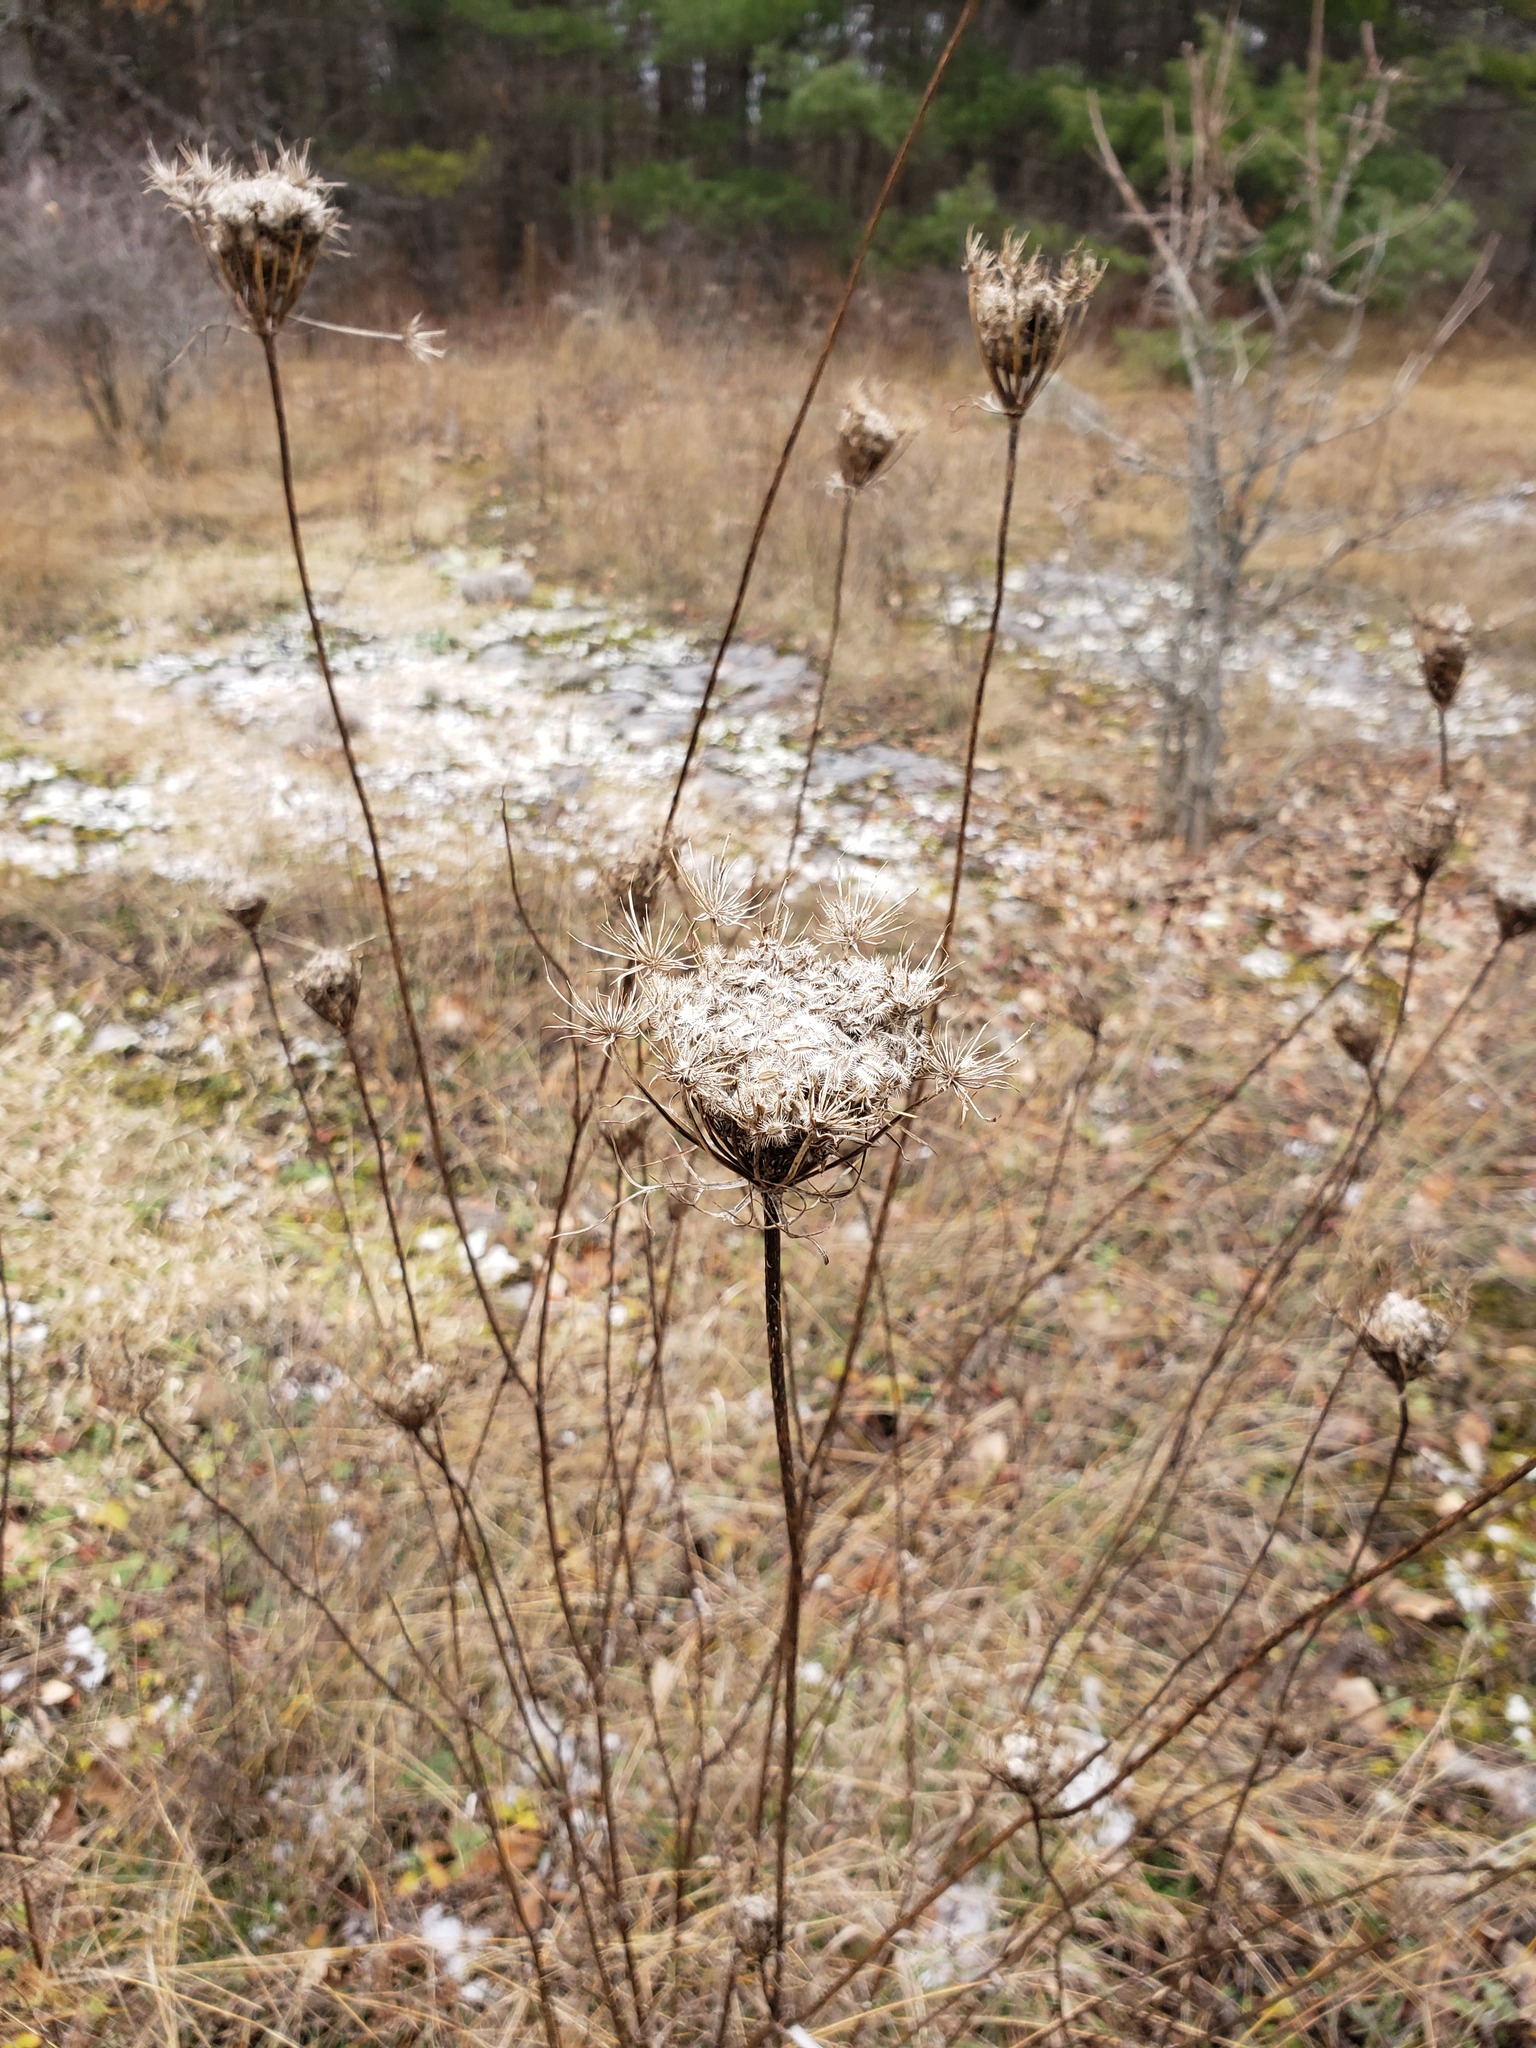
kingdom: Plantae
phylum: Tracheophyta
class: Magnoliopsida
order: Apiales
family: Apiaceae
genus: Daucus
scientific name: Daucus carota
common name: Wild carrot
